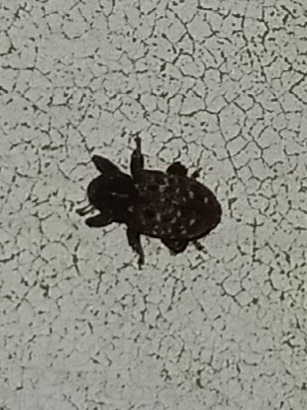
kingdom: Animalia
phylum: Arthropoda
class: Insecta
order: Coleoptera
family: Curculionidae
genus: Apteromechus
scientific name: Apteromechus ferratus
